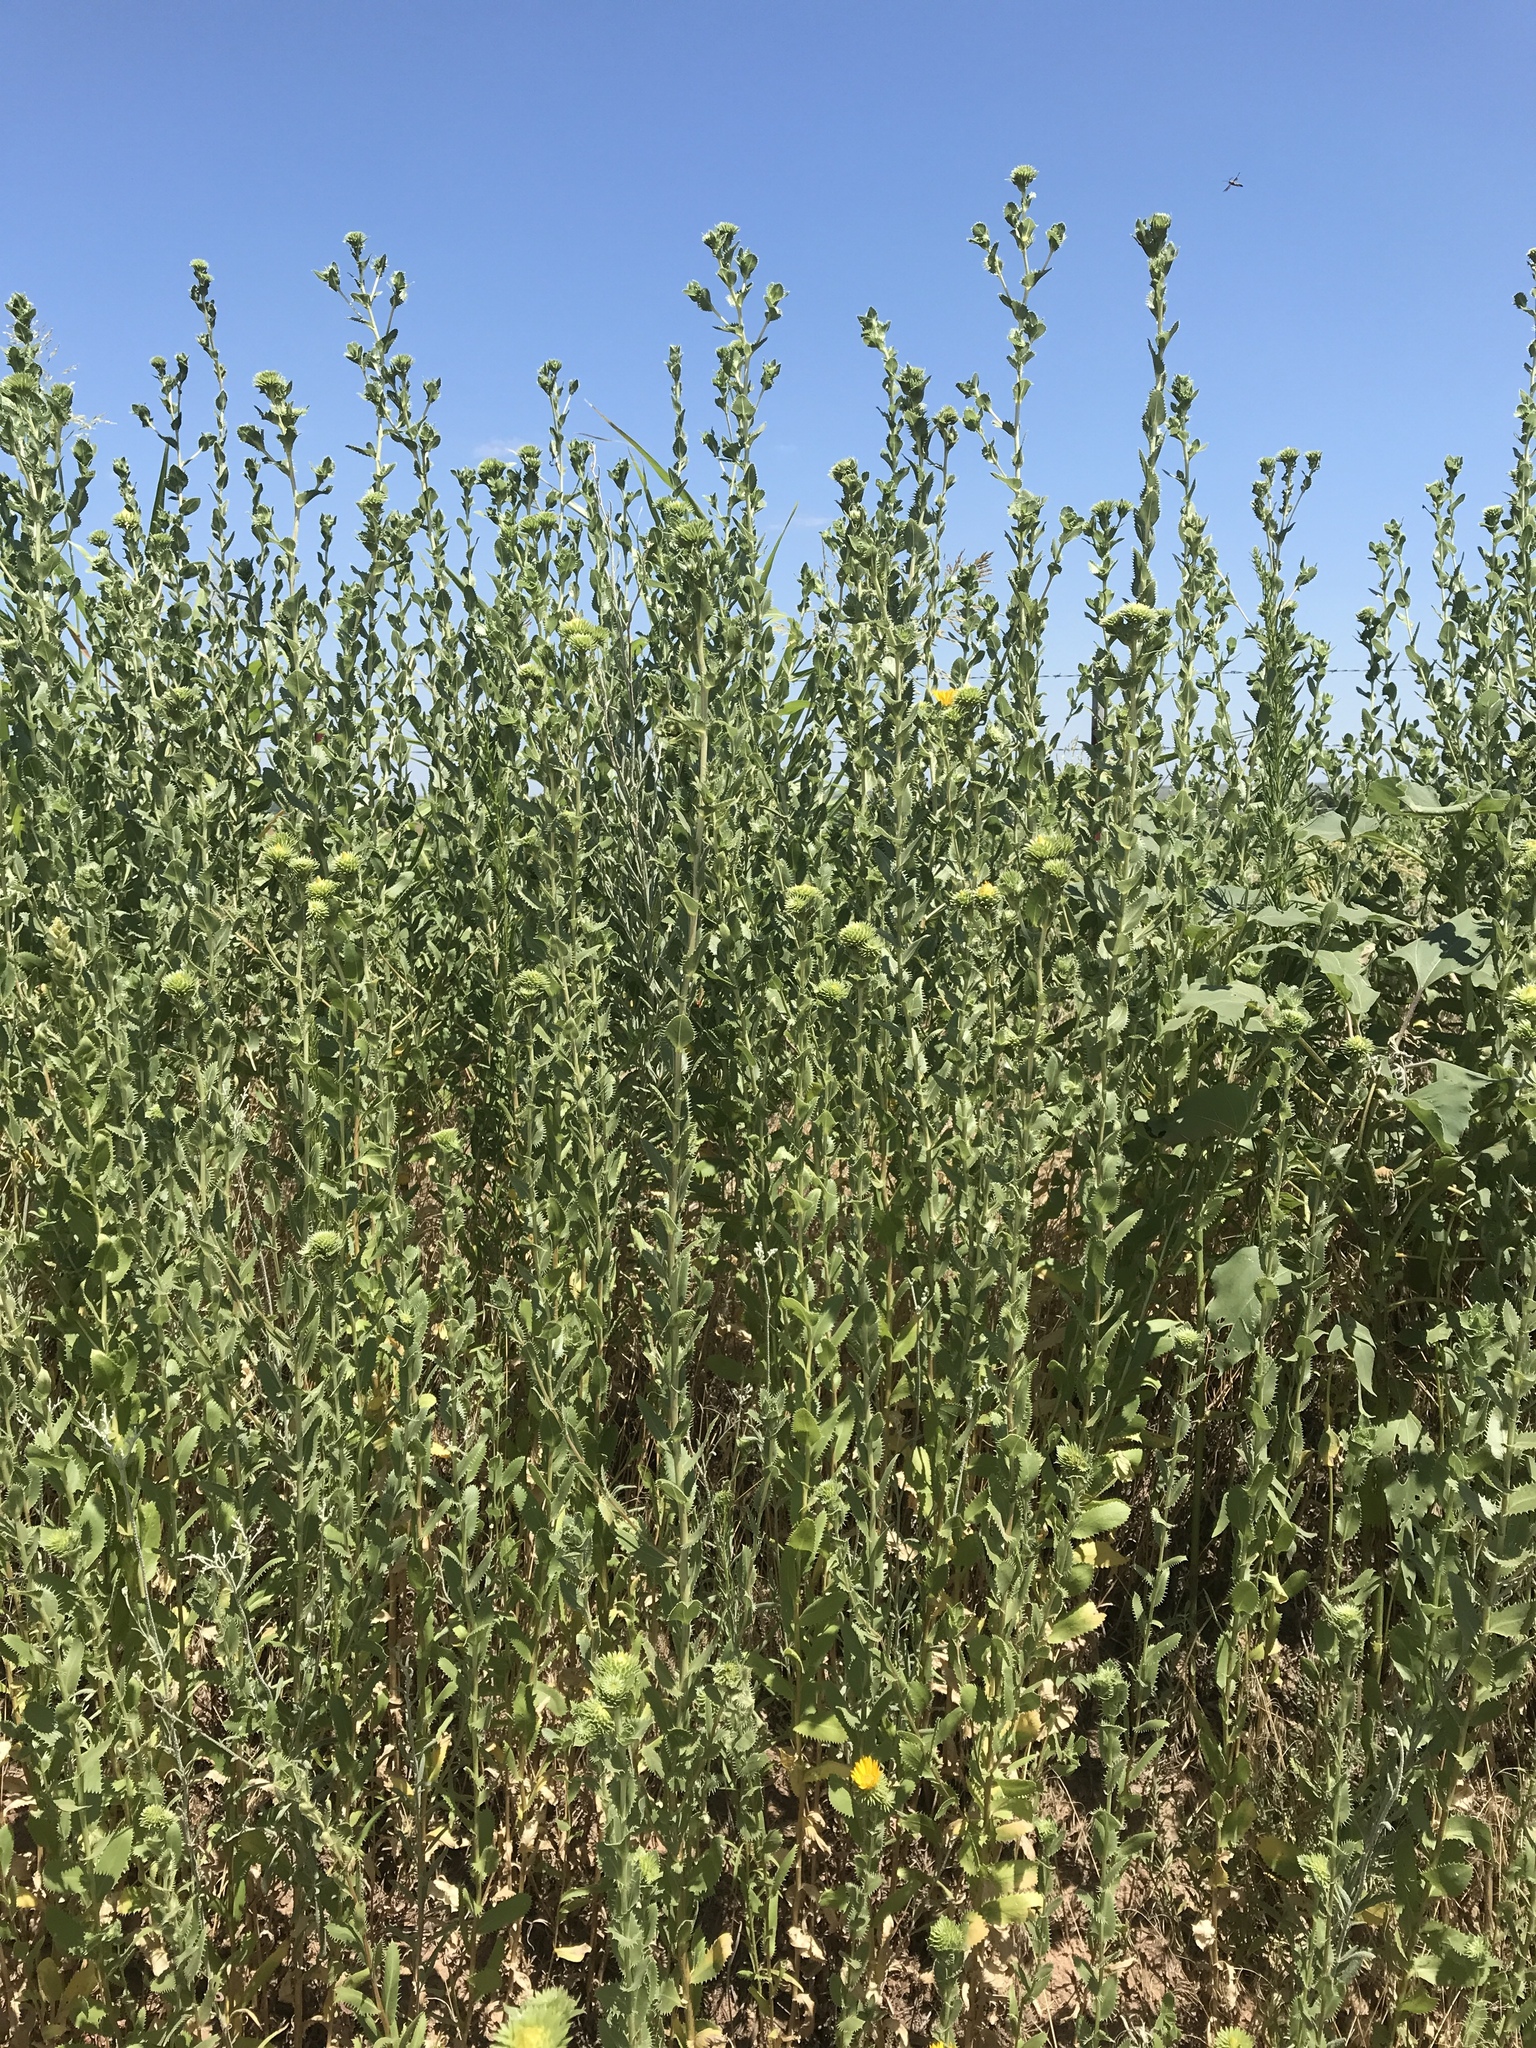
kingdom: Plantae
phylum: Tracheophyta
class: Magnoliopsida
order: Asterales
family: Asteraceae
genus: Grindelia
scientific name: Grindelia ciliata
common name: Goldenweed
